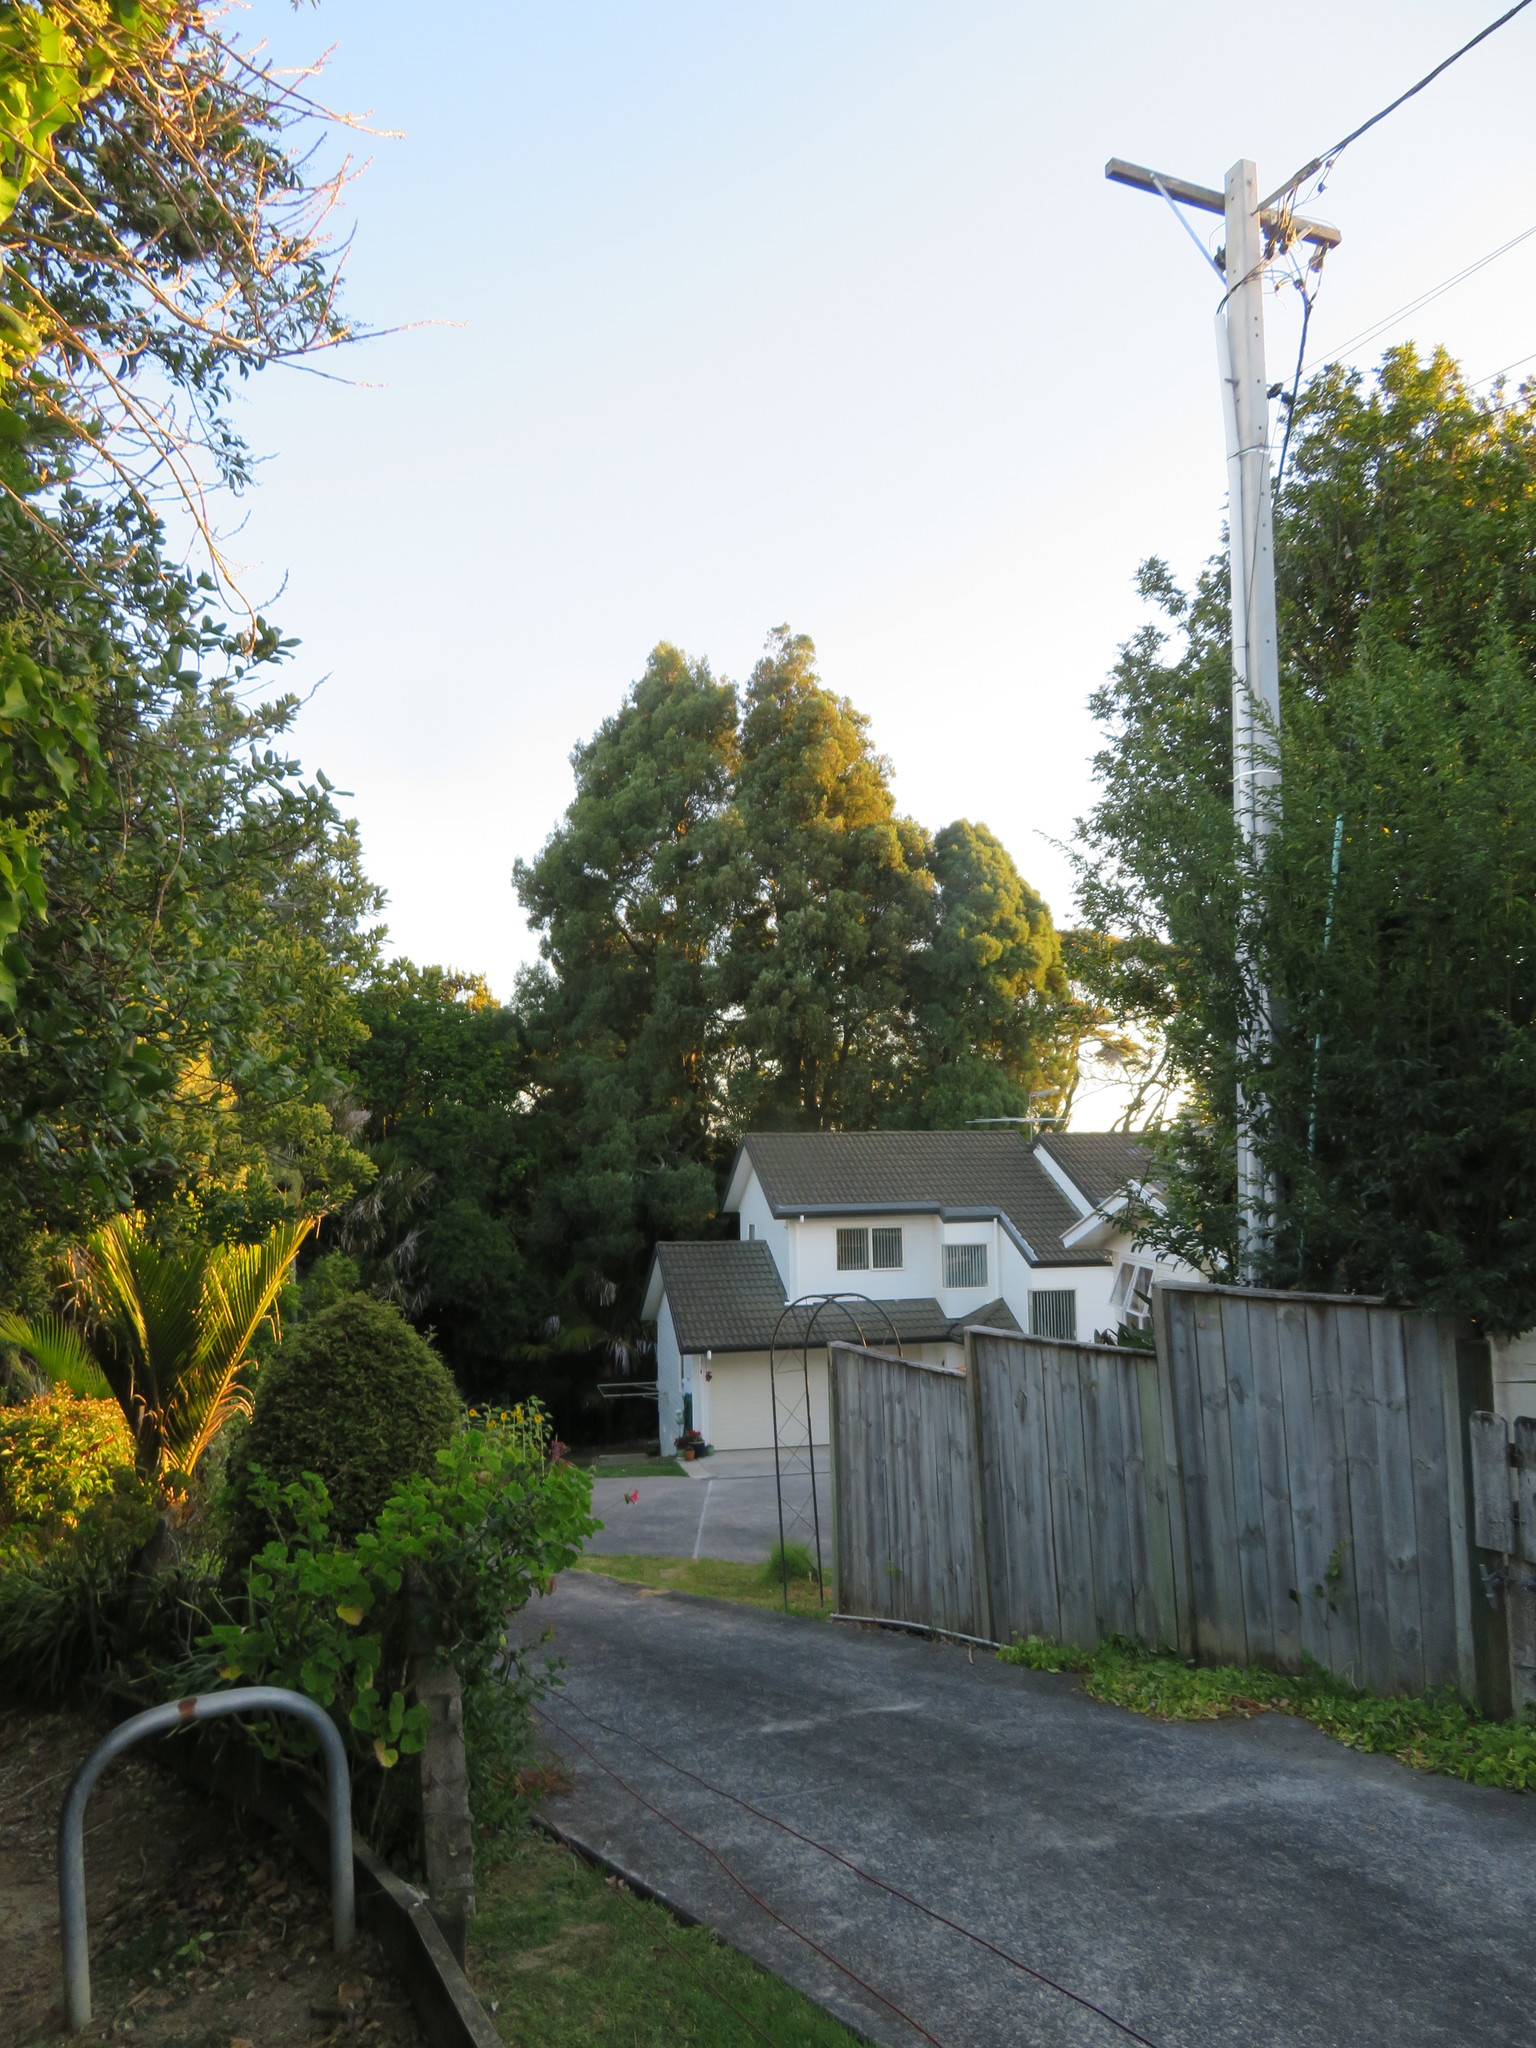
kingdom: Plantae
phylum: Tracheophyta
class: Liliopsida
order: Arecales
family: Arecaceae
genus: Rhopalostylis
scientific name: Rhopalostylis sapida
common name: Feather-duster palm
